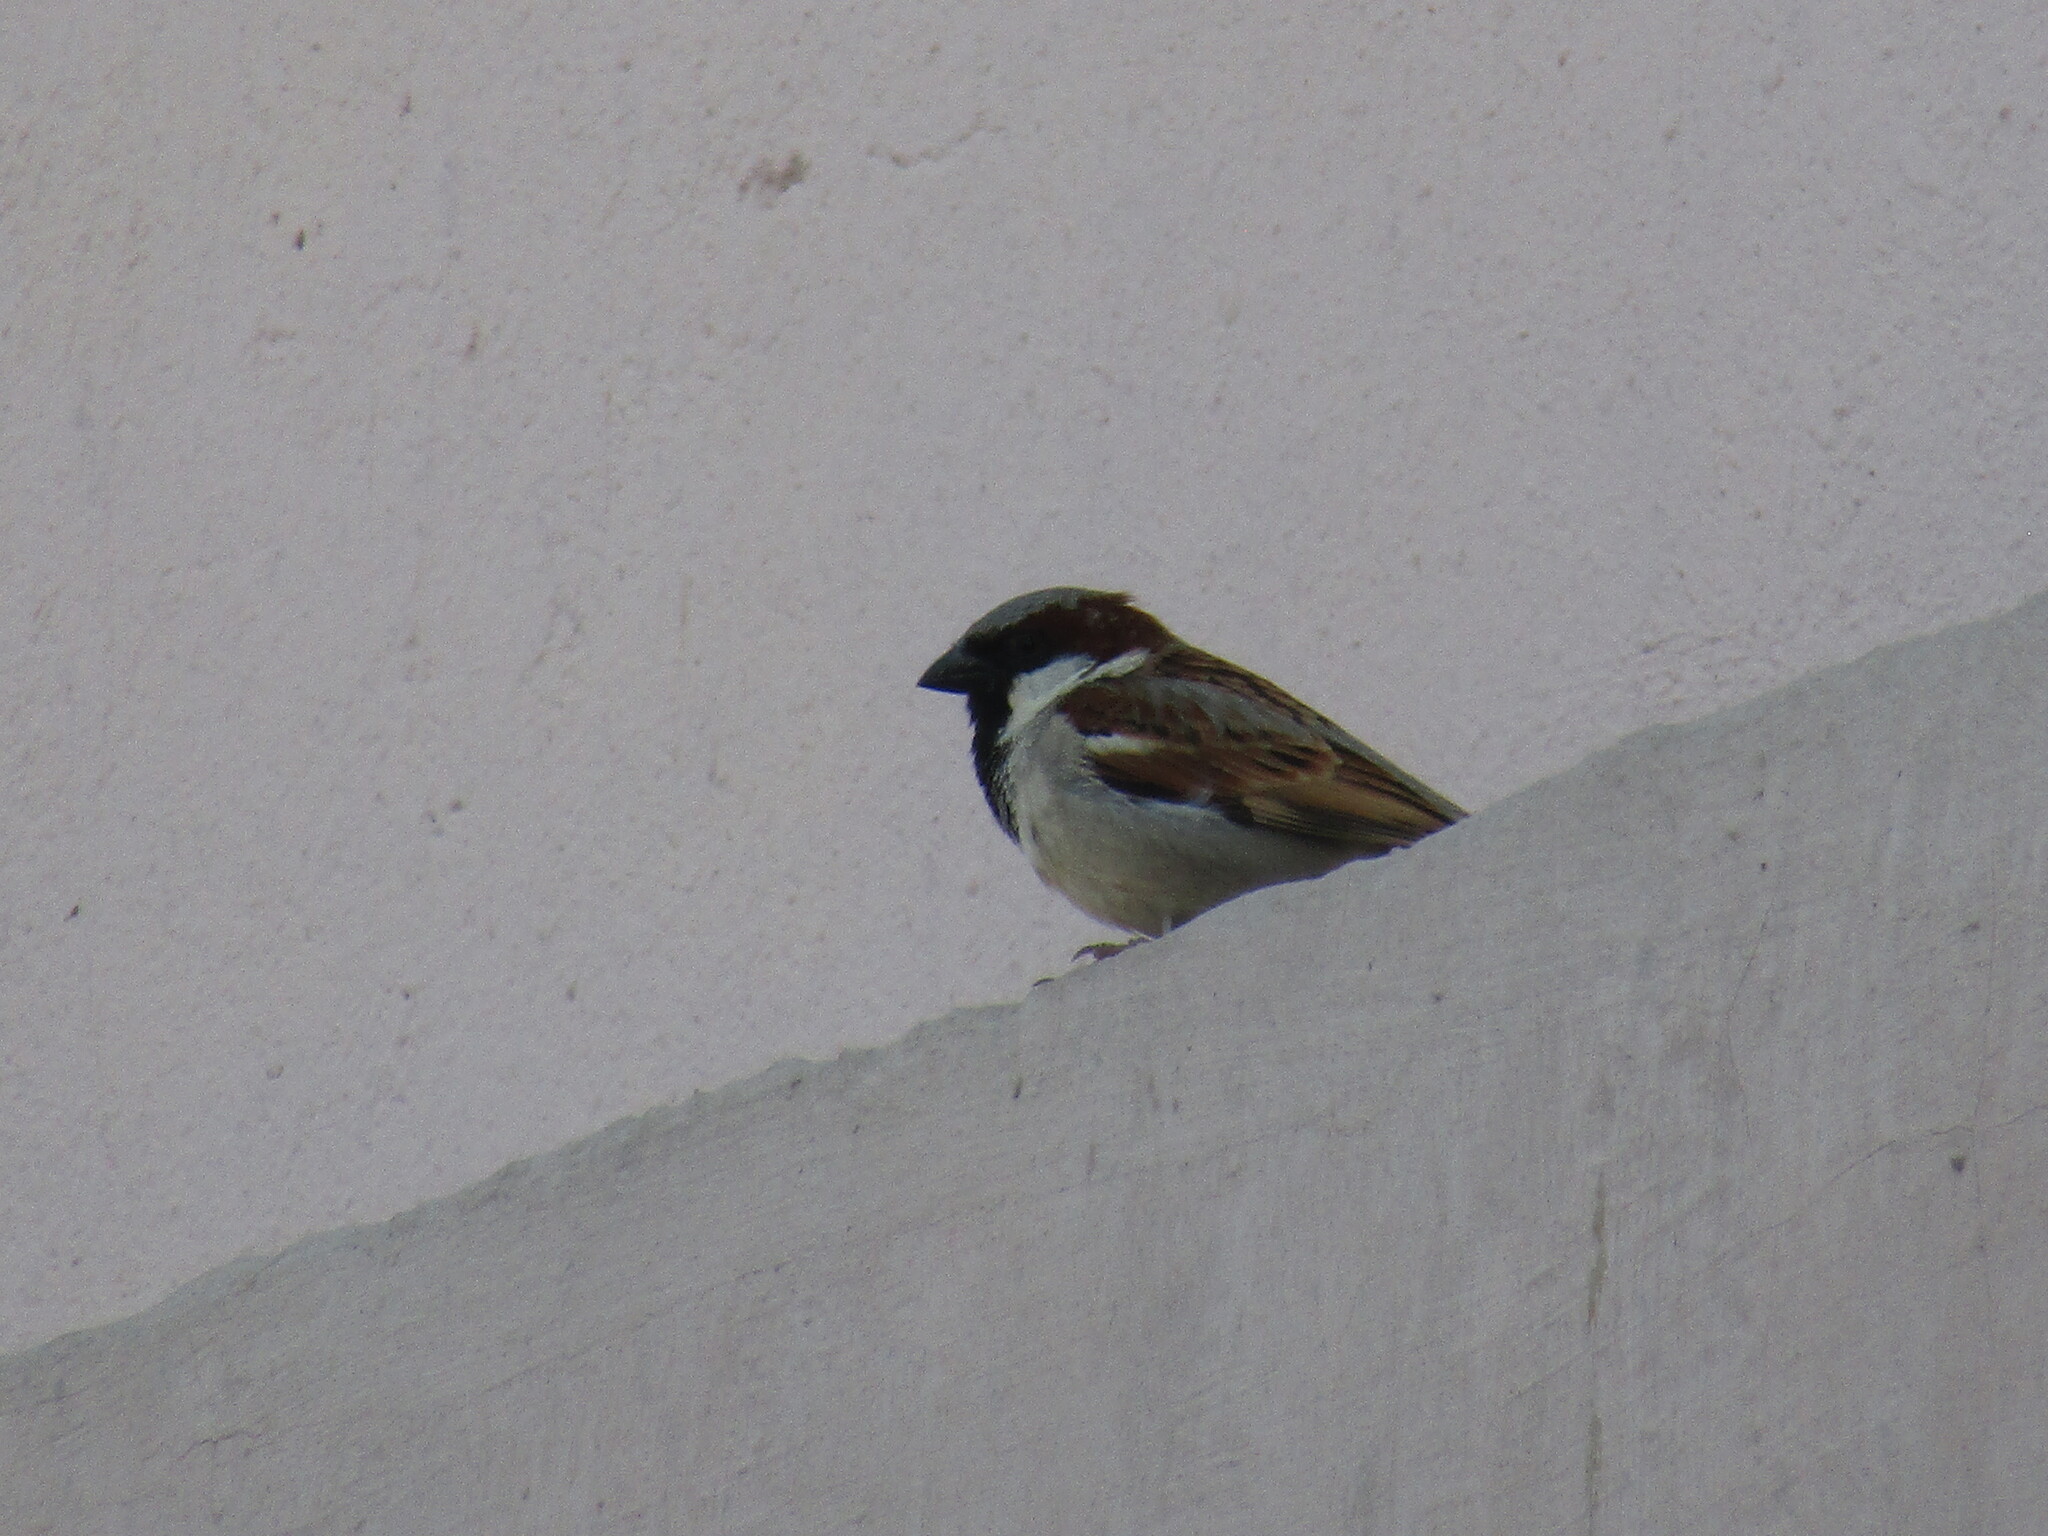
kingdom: Animalia
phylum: Chordata
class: Aves
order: Passeriformes
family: Passeridae
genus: Passer
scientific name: Passer domesticus
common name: House sparrow
